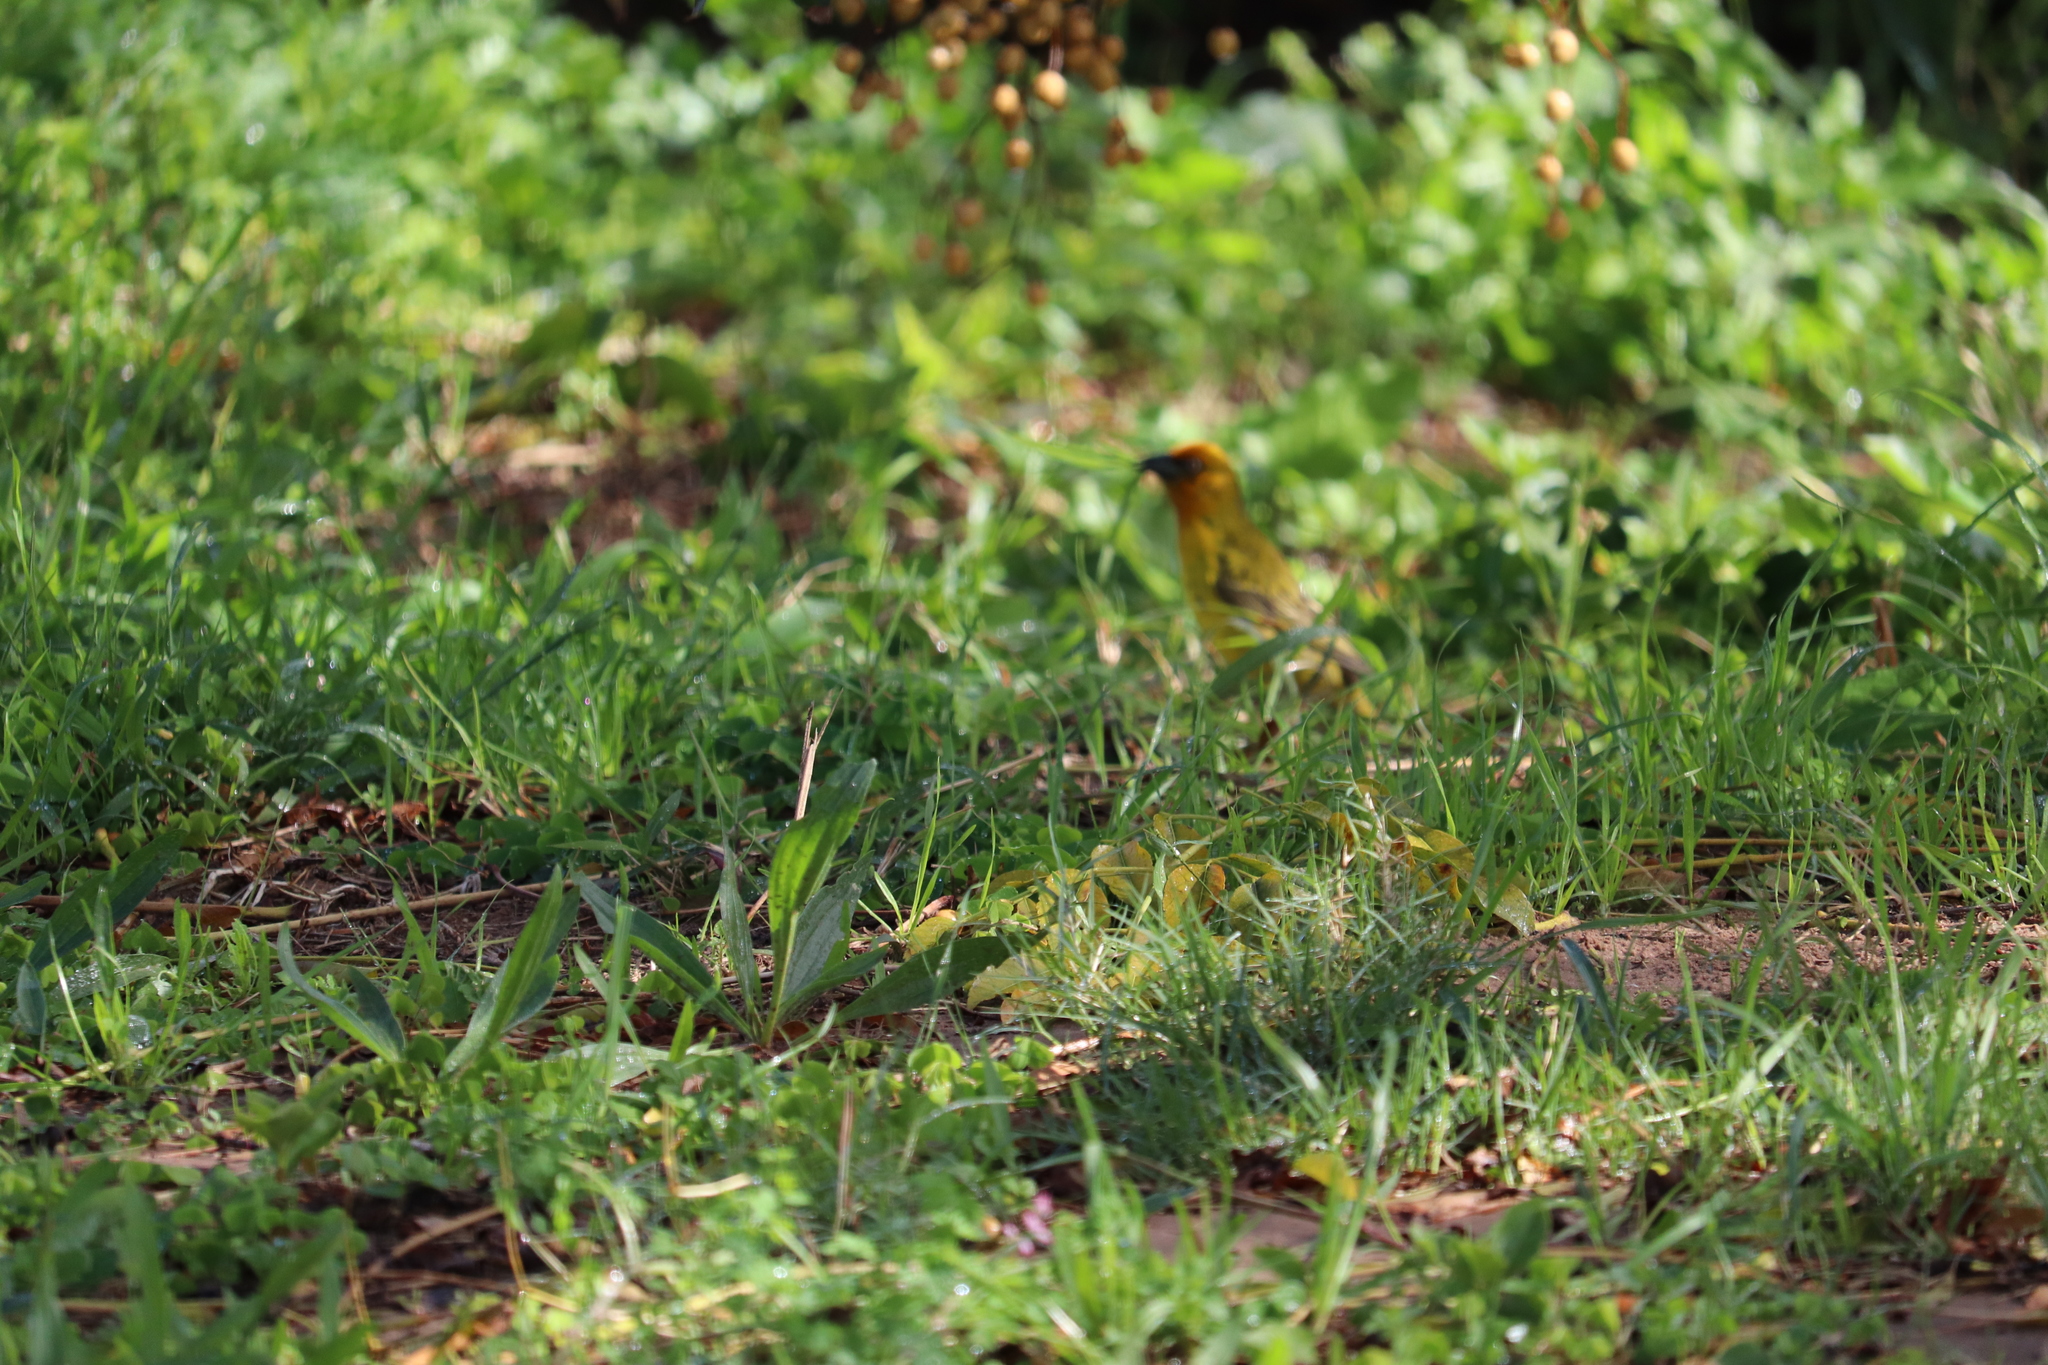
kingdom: Animalia
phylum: Chordata
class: Aves
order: Passeriformes
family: Ploceidae
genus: Ploceus
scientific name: Ploceus capensis
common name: Cape weaver
